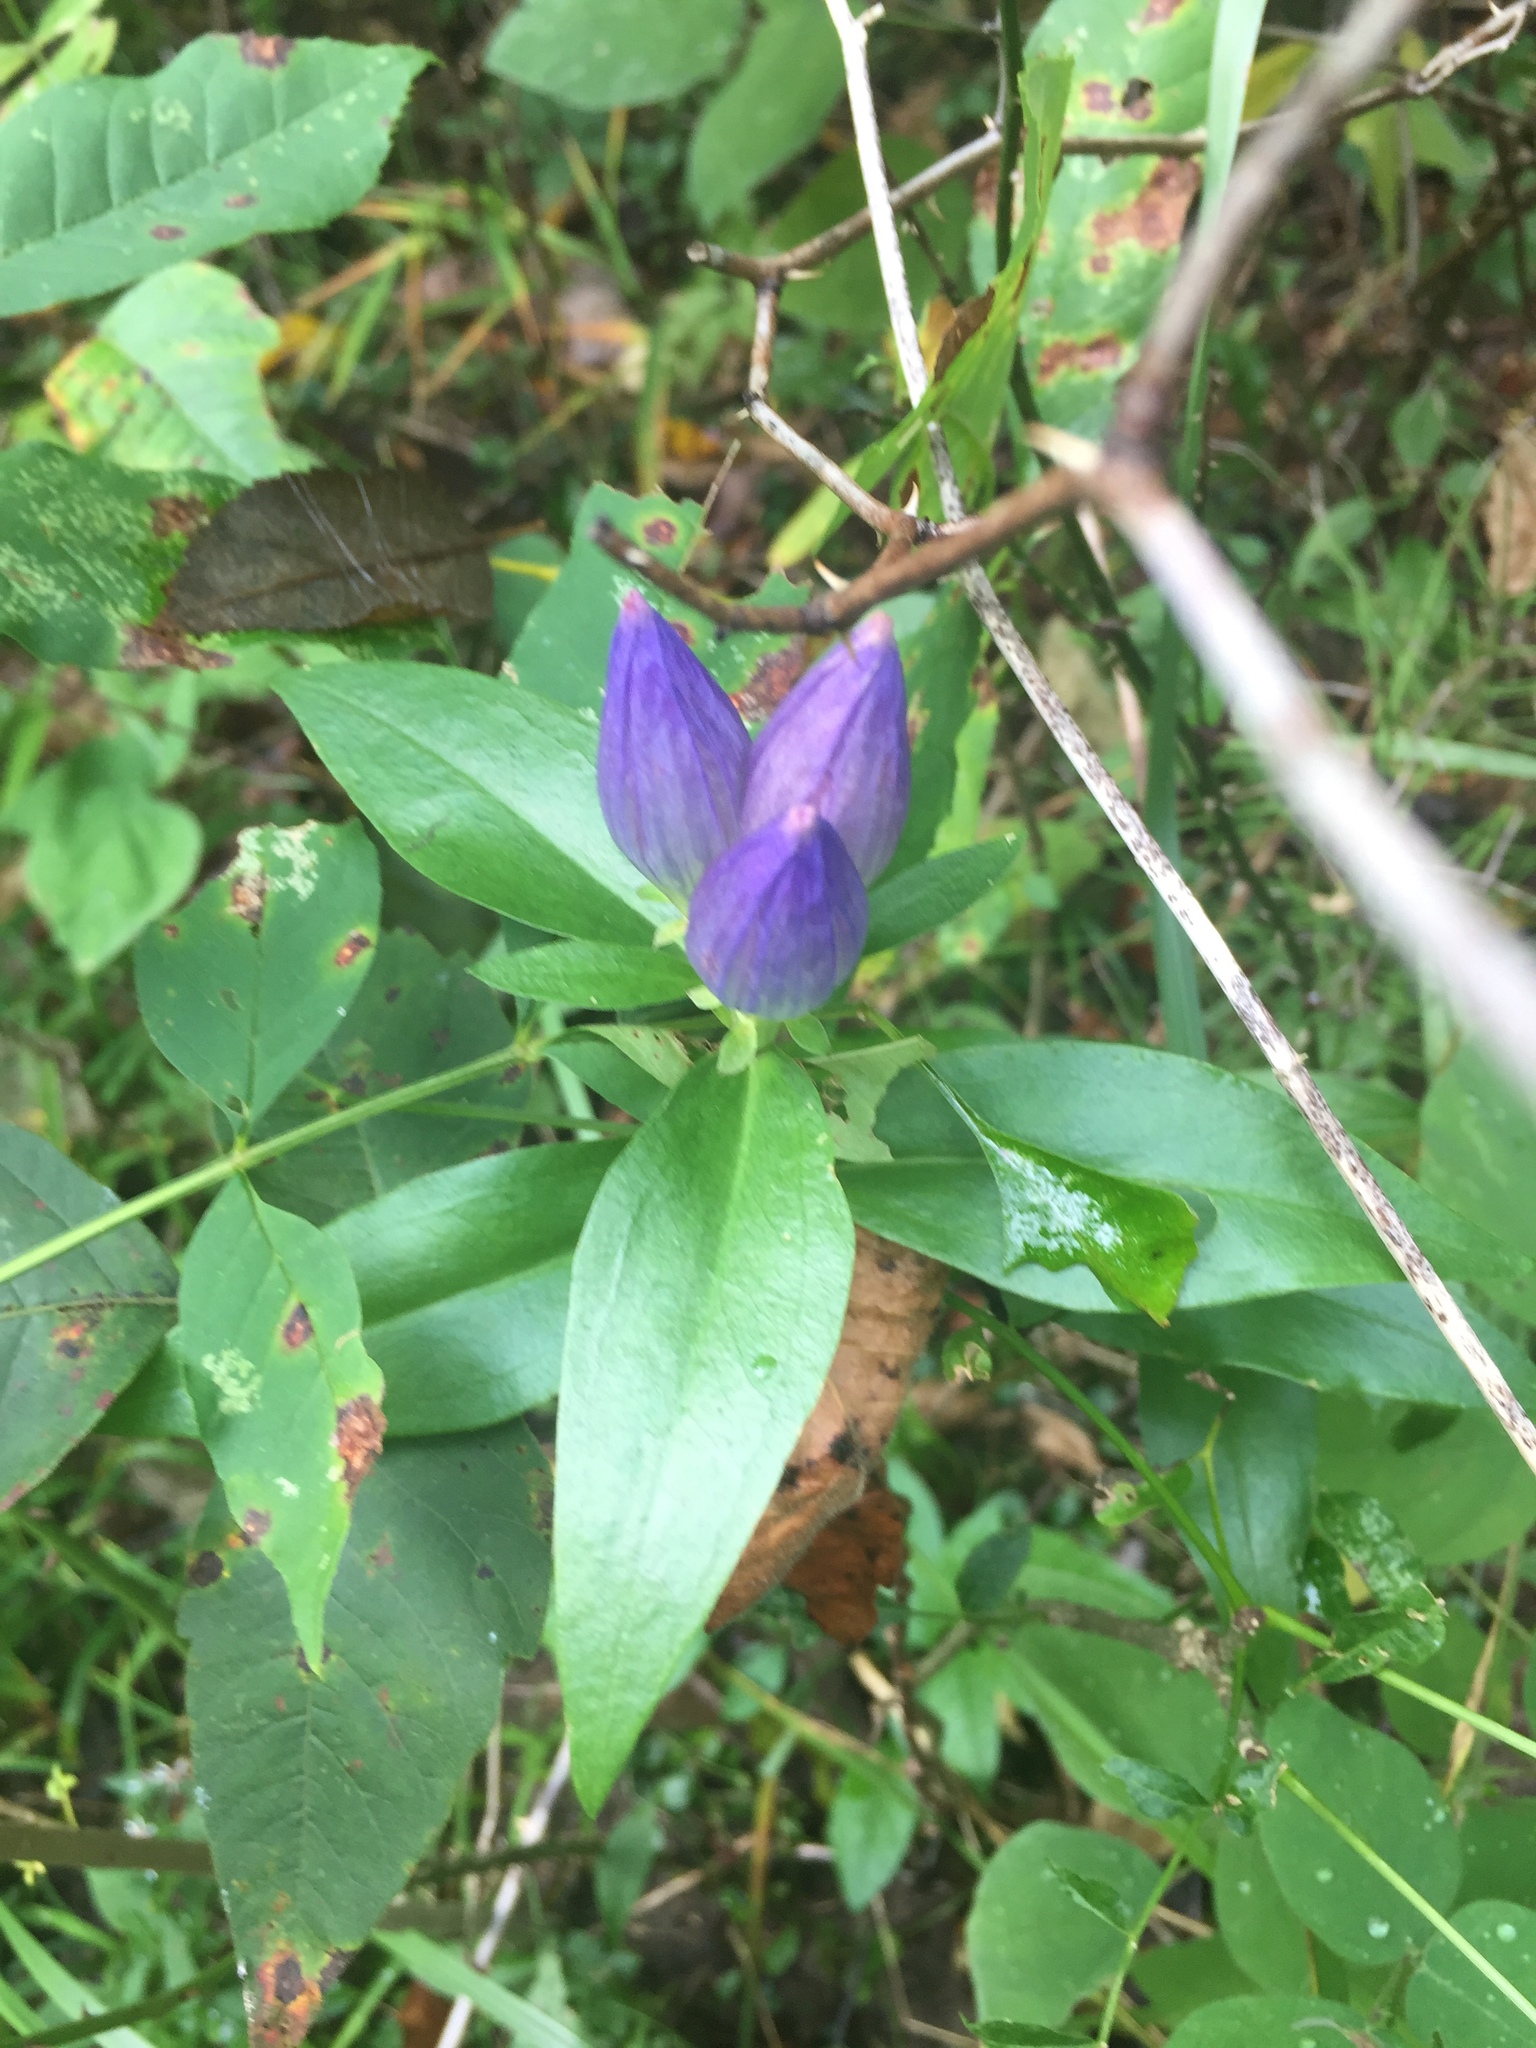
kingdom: Plantae
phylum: Tracheophyta
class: Magnoliopsida
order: Gentianales
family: Gentianaceae
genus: Gentiana
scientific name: Gentiana andrewsii
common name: Bottle gentian
